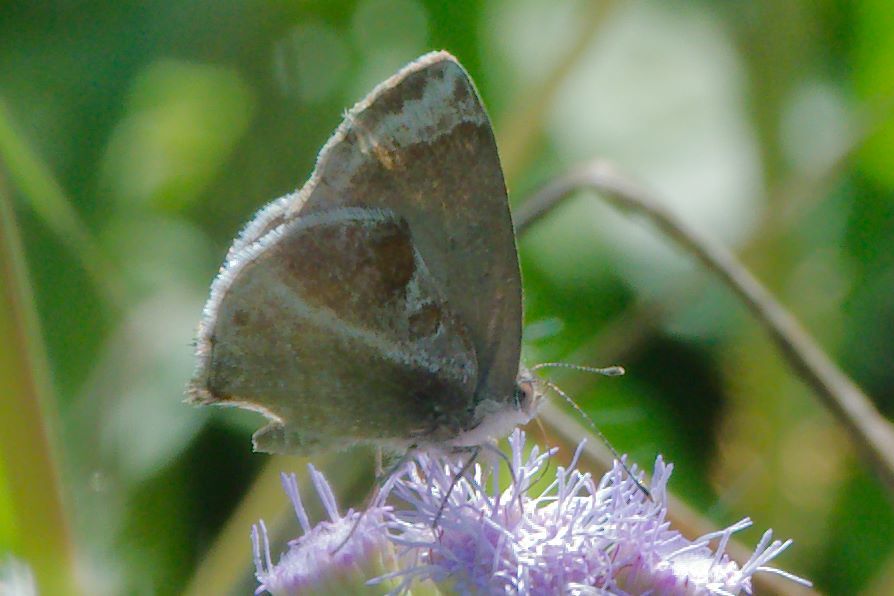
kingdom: Animalia
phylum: Arthropoda
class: Insecta
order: Lepidoptera
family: Lycaenidae
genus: Strymon
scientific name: Strymon bazochii
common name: Lantana scrub-hairstreak
